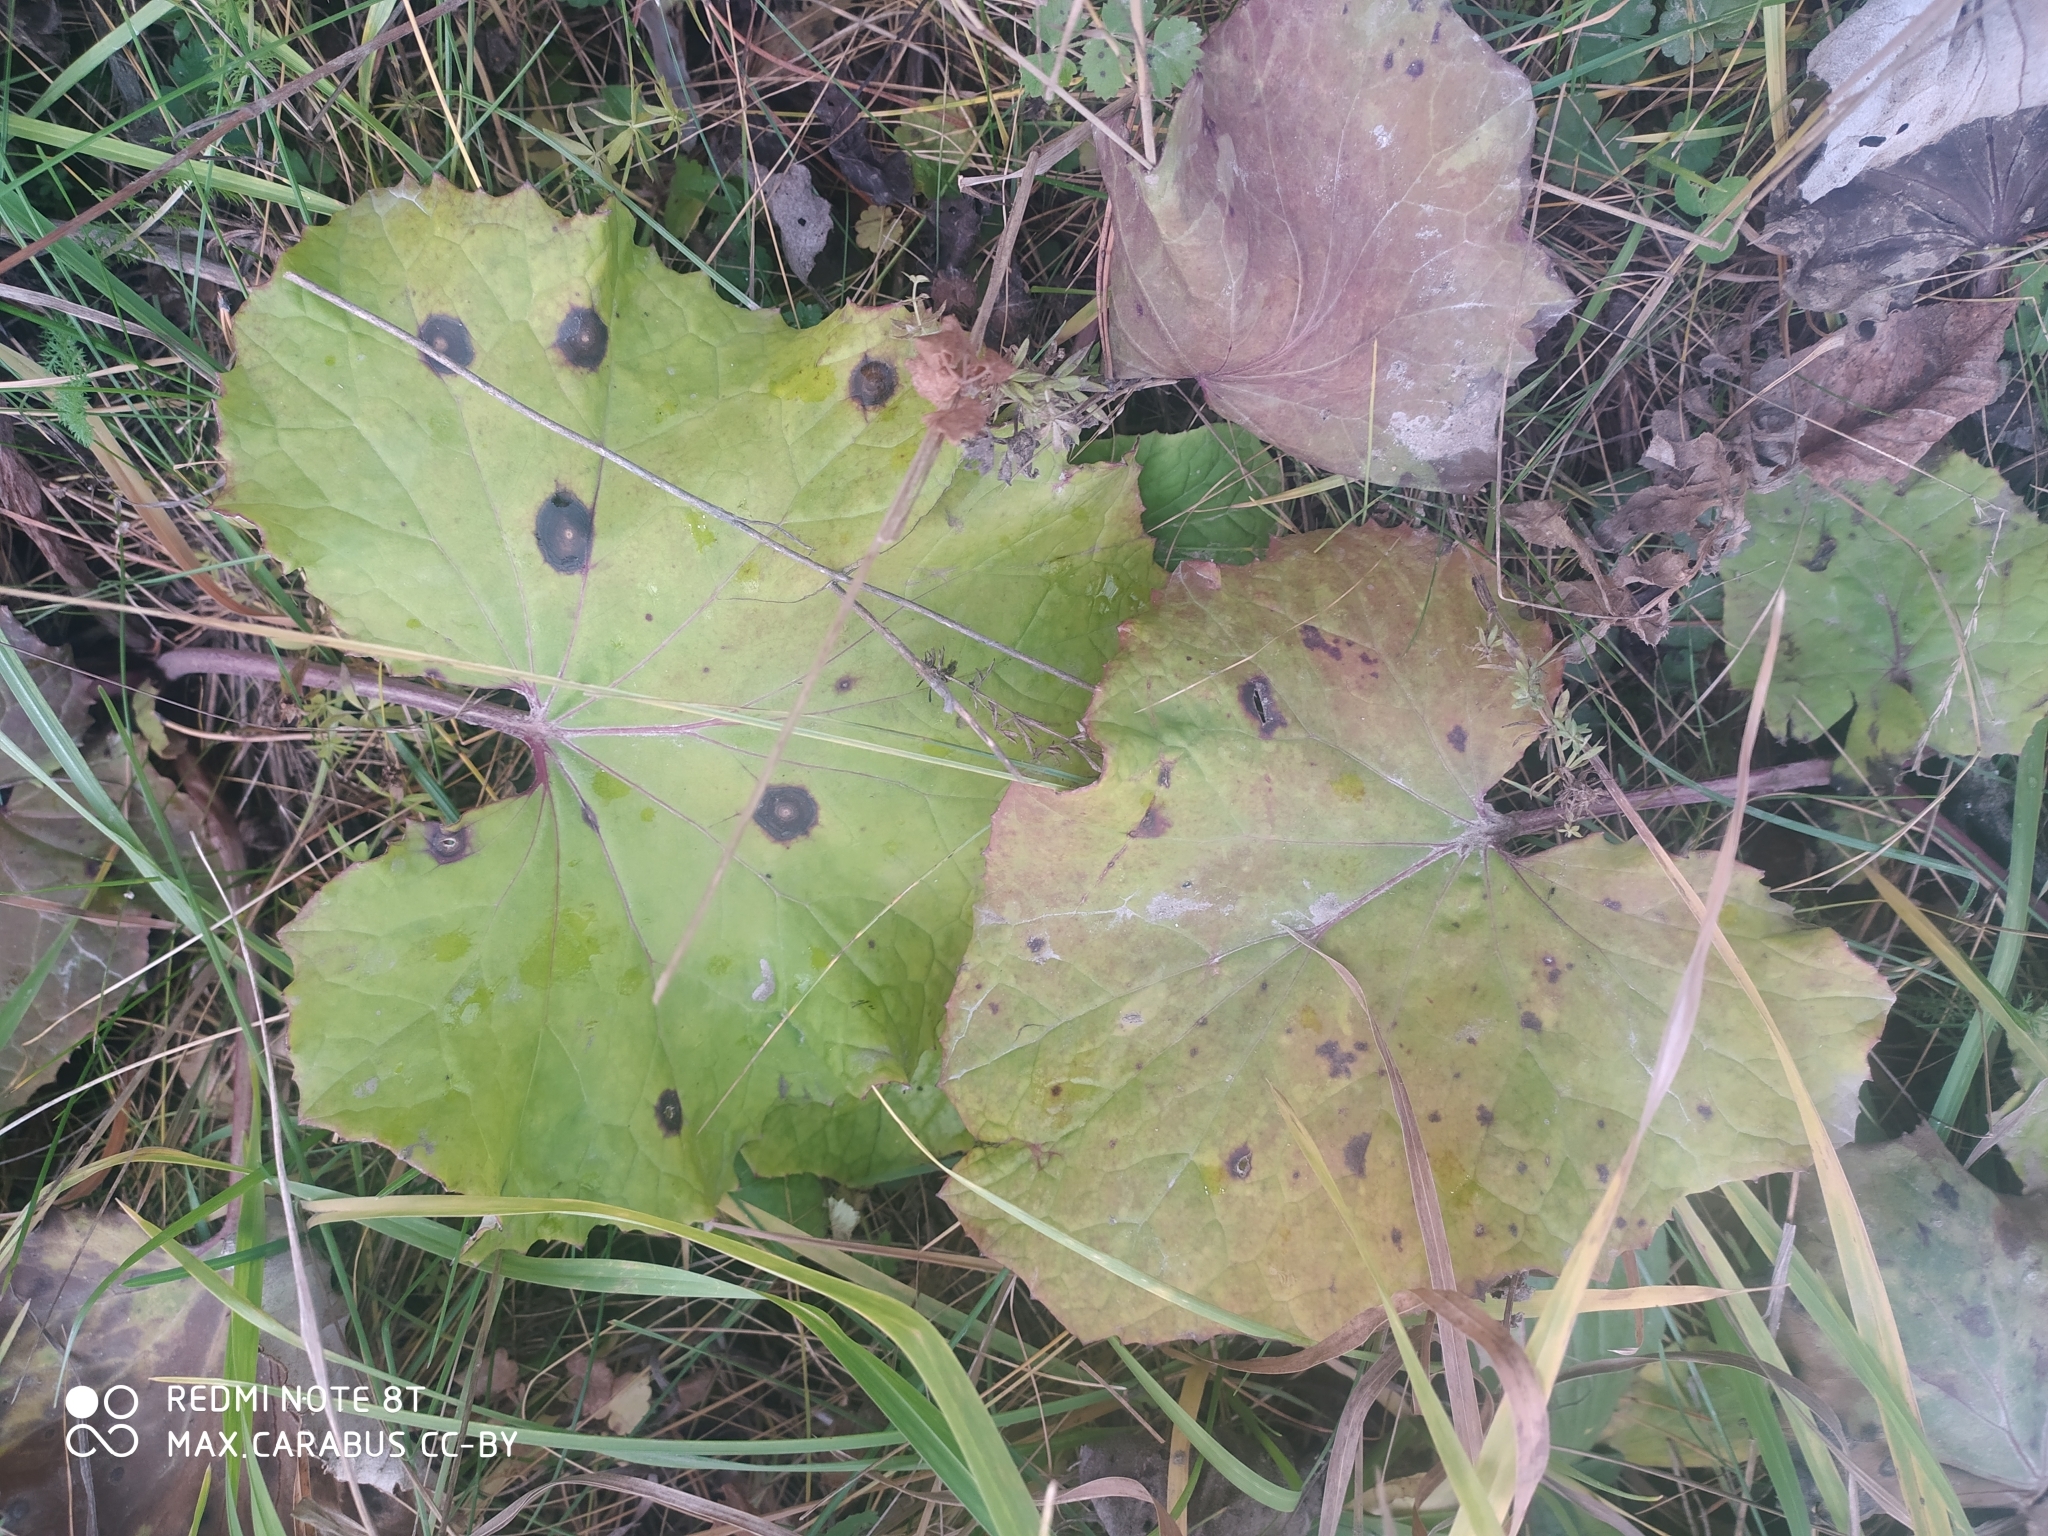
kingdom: Plantae
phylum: Tracheophyta
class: Magnoliopsida
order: Asterales
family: Asteraceae
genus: Tussilago
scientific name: Tussilago farfara
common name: Coltsfoot
